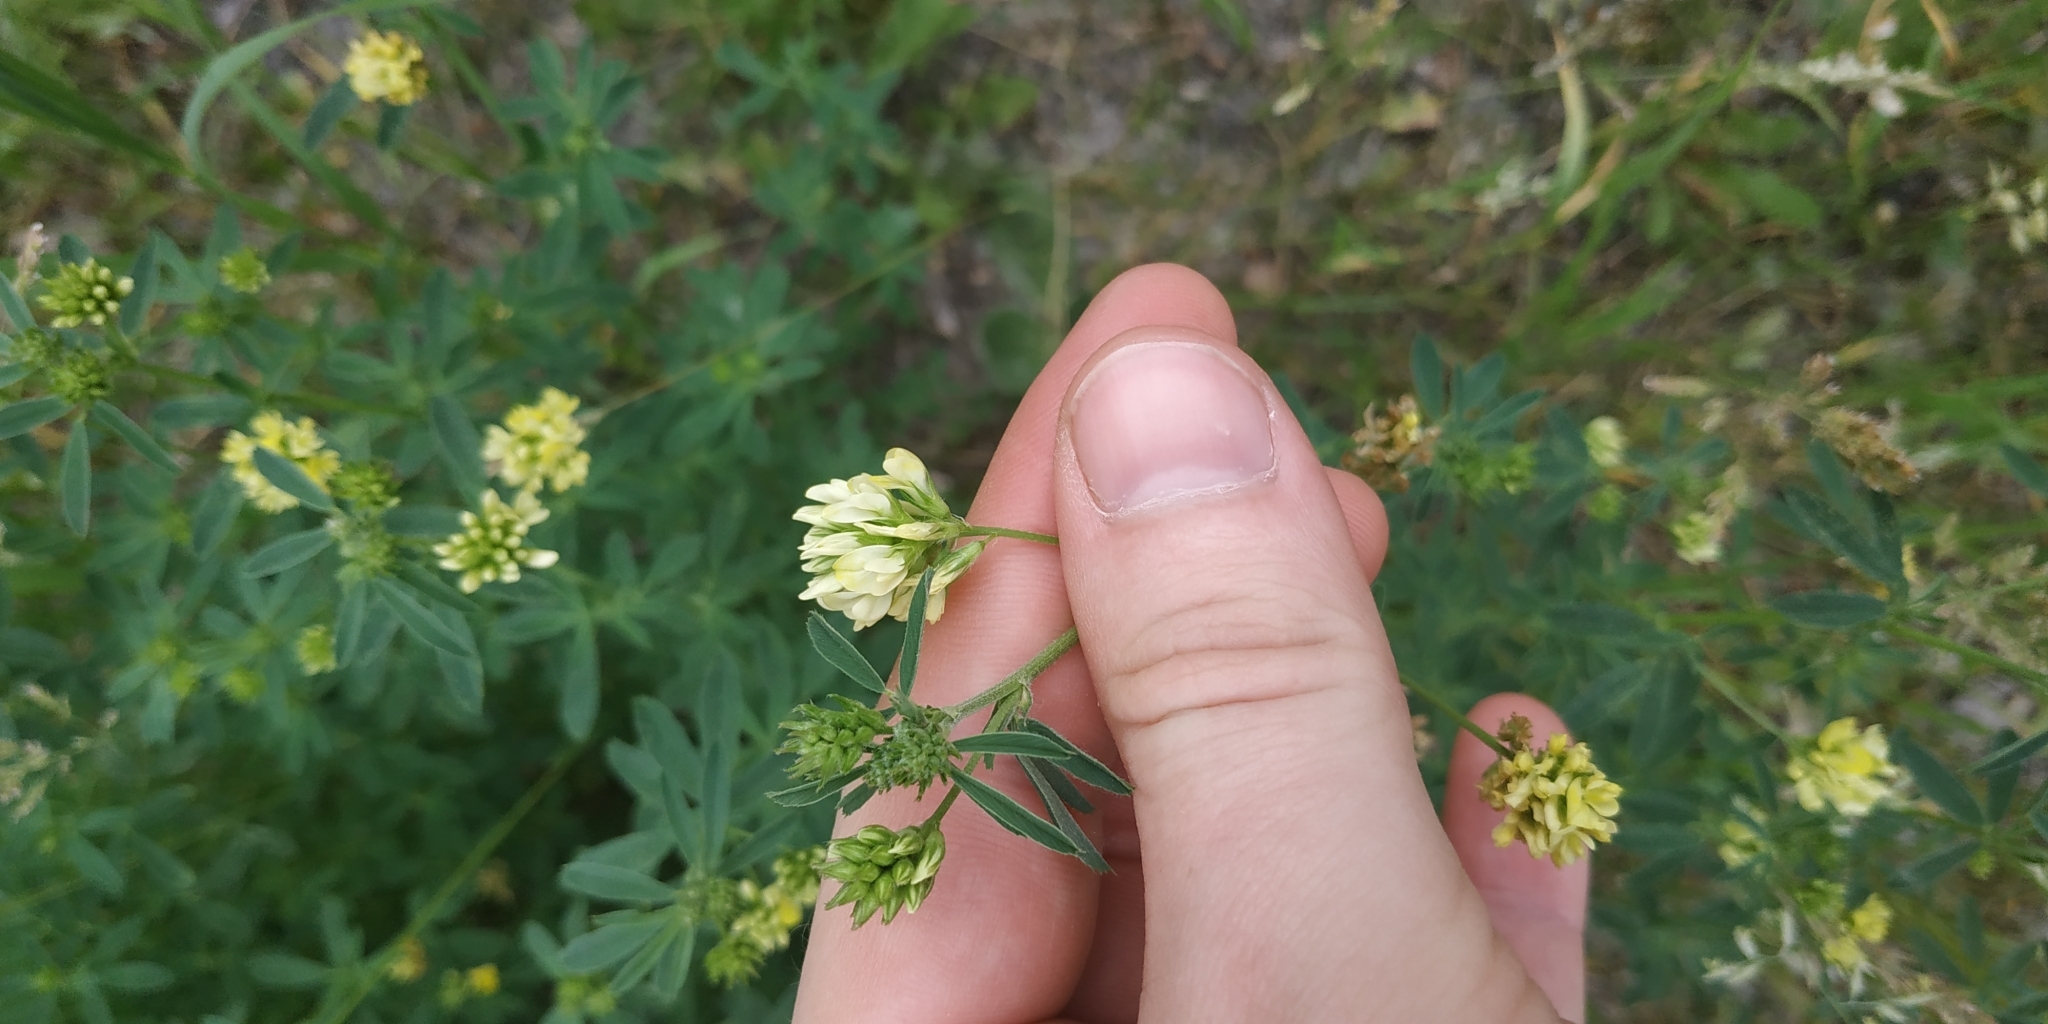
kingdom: Plantae
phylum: Tracheophyta
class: Magnoliopsida
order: Fabales
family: Fabaceae
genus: Medicago
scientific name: Medicago varia
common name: Sand lucerne
